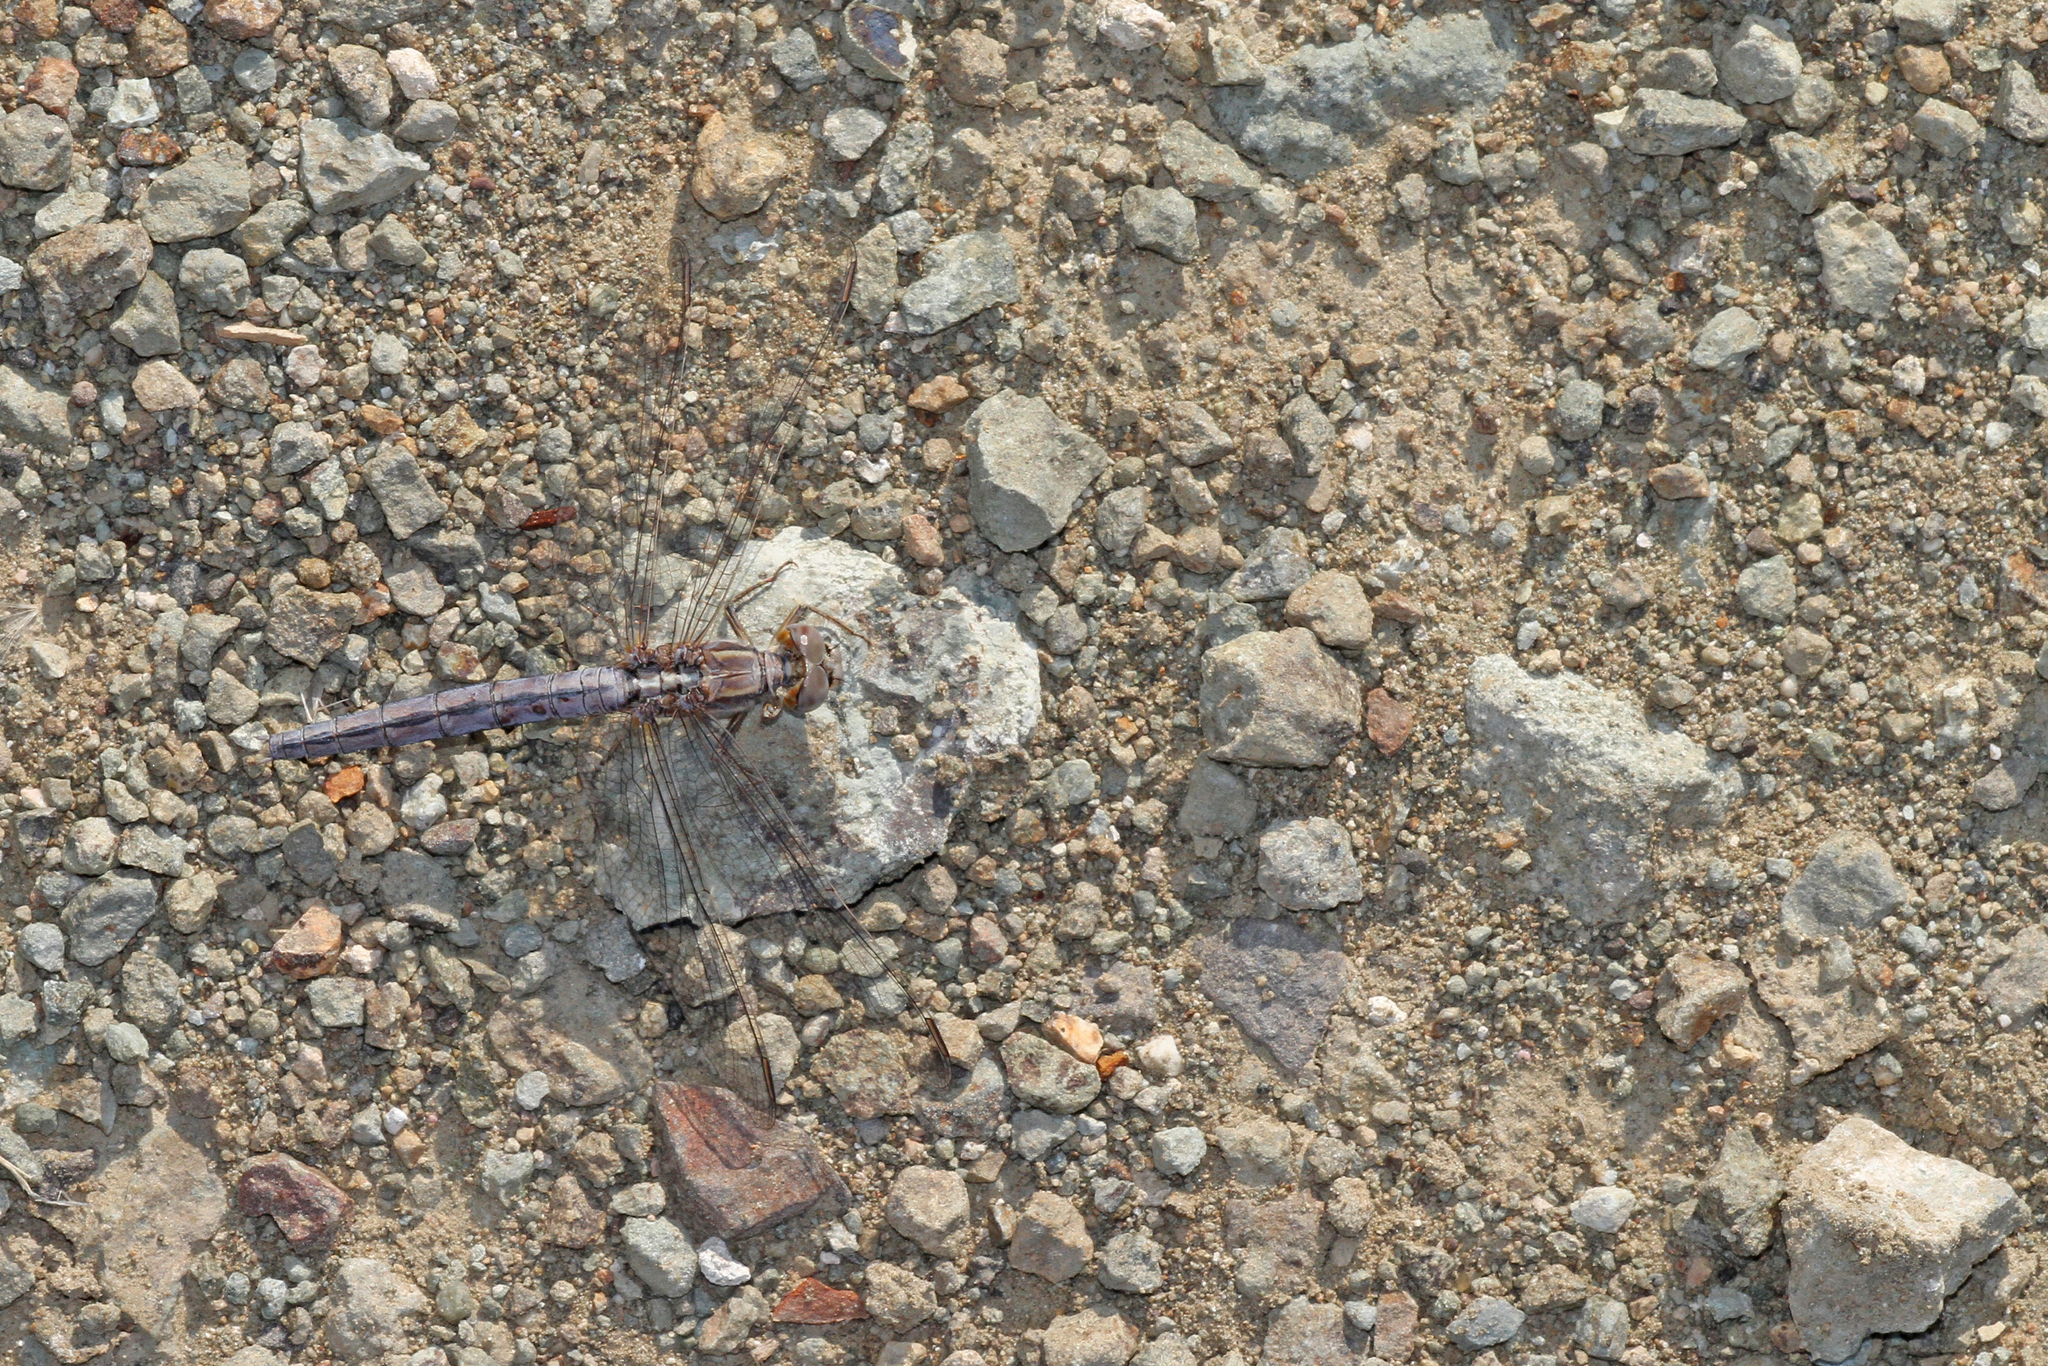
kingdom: Animalia
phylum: Arthropoda
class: Insecta
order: Odonata
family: Libellulidae
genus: Orthetrum
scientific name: Orthetrum taeniolatum
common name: Small skimmer
